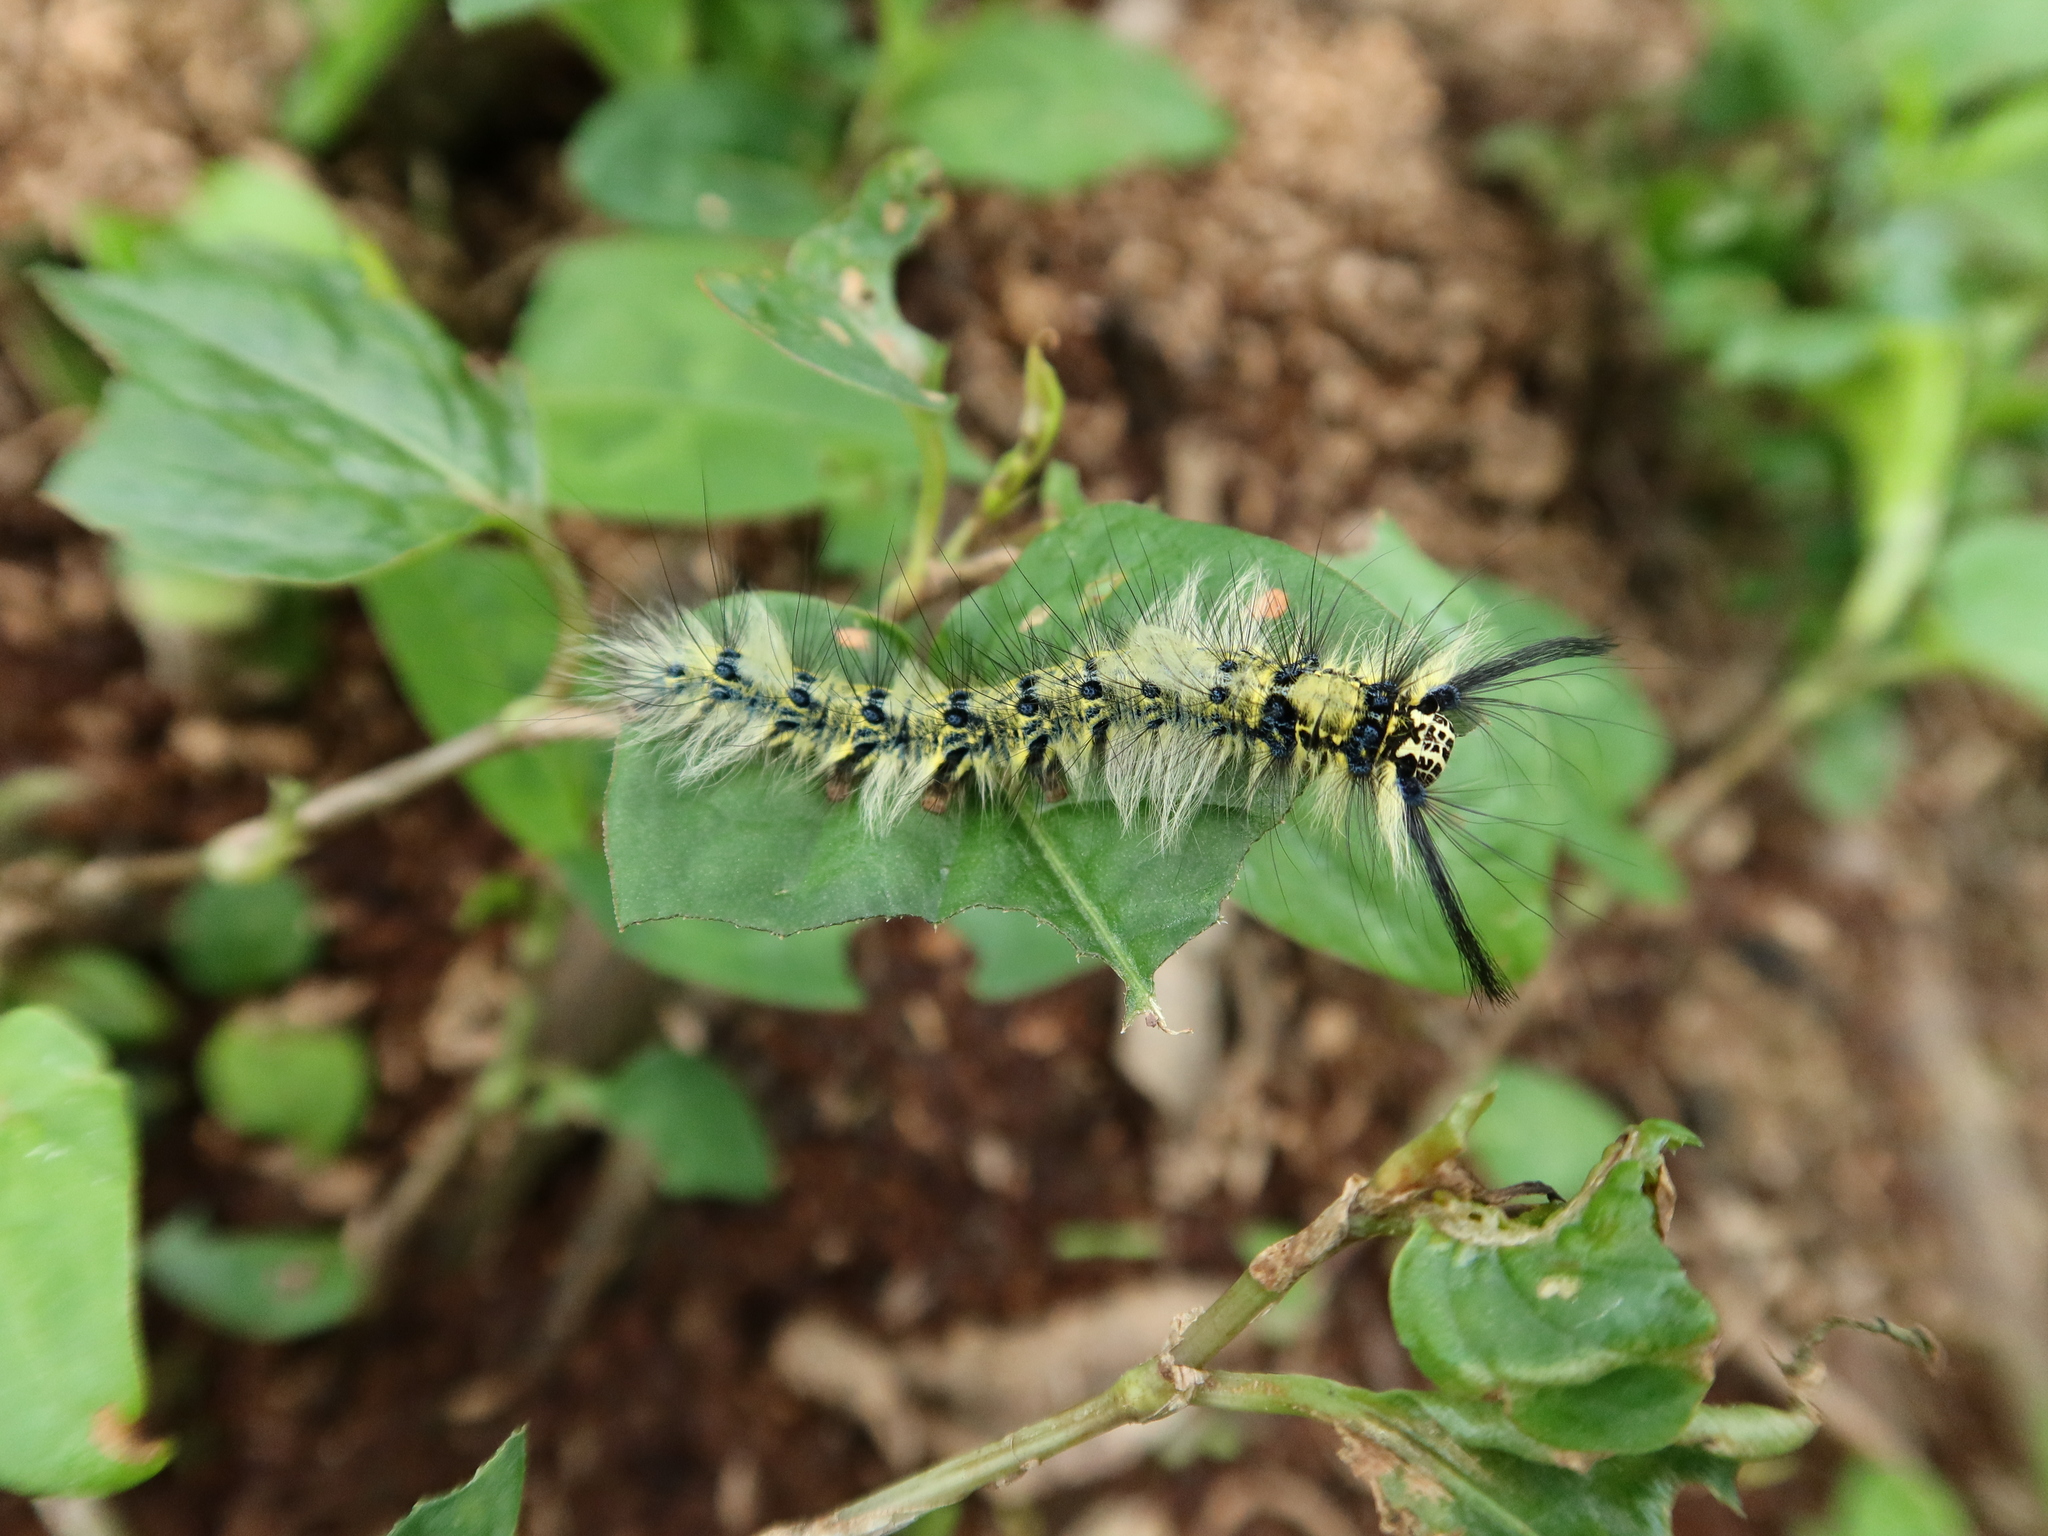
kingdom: Animalia
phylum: Arthropoda
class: Insecta
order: Lepidoptera
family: Lasiocampidae
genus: Trabala
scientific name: Trabala vishnou
